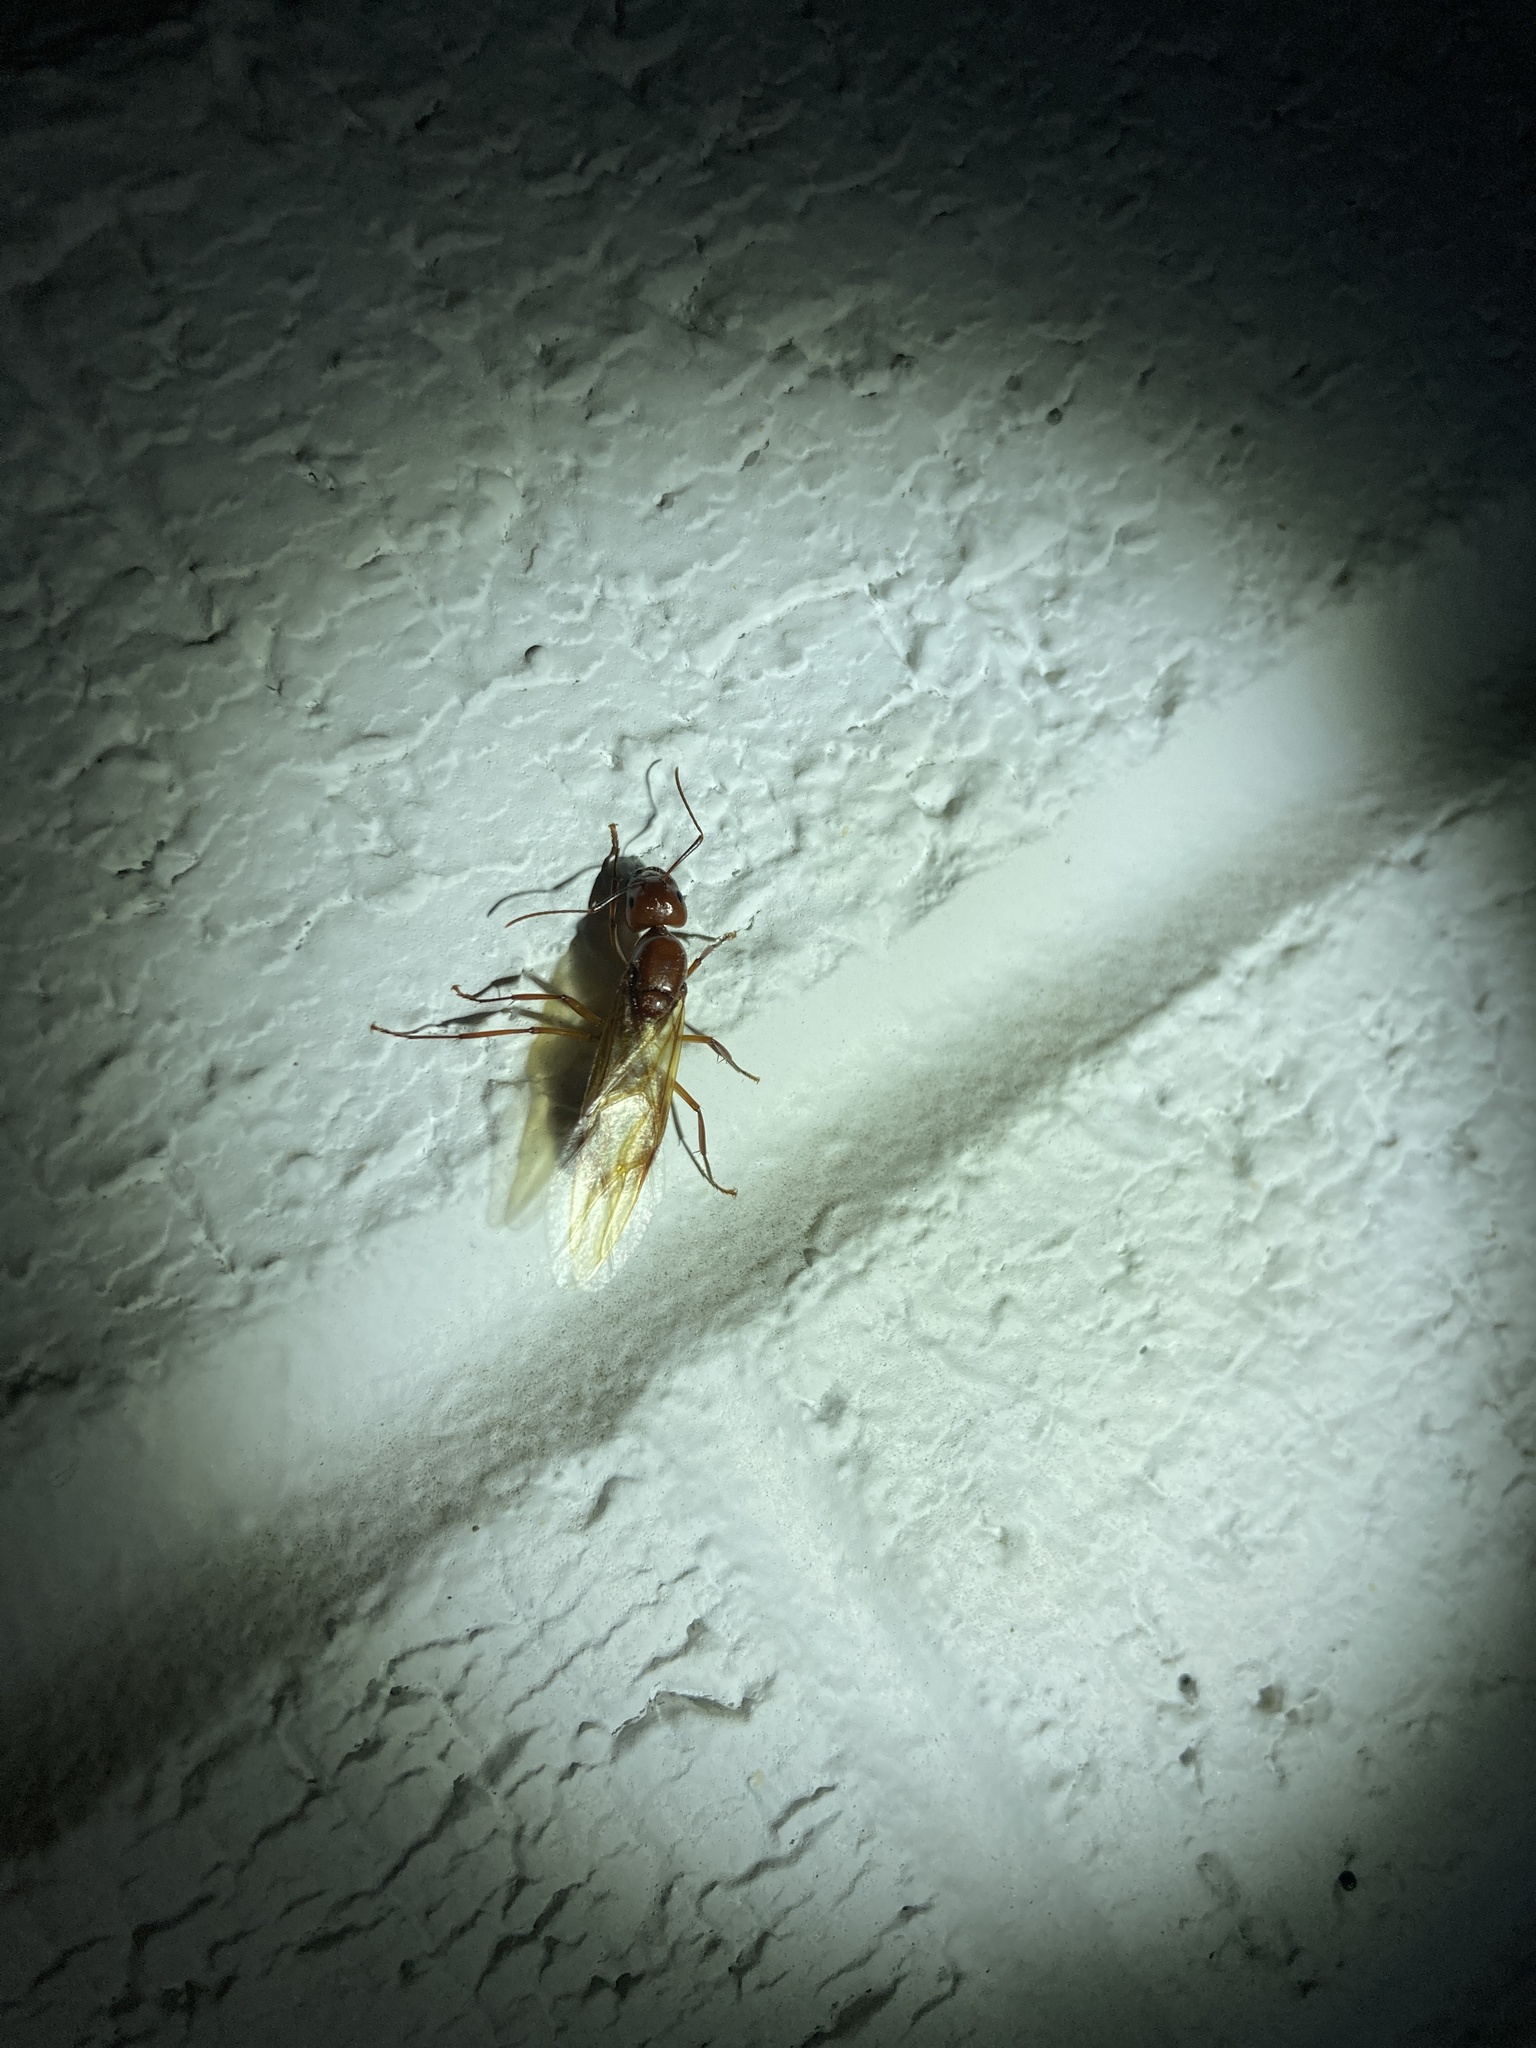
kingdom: Animalia
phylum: Arthropoda
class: Insecta
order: Hymenoptera
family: Formicidae
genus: Camponotus
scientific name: Camponotus castaneus
